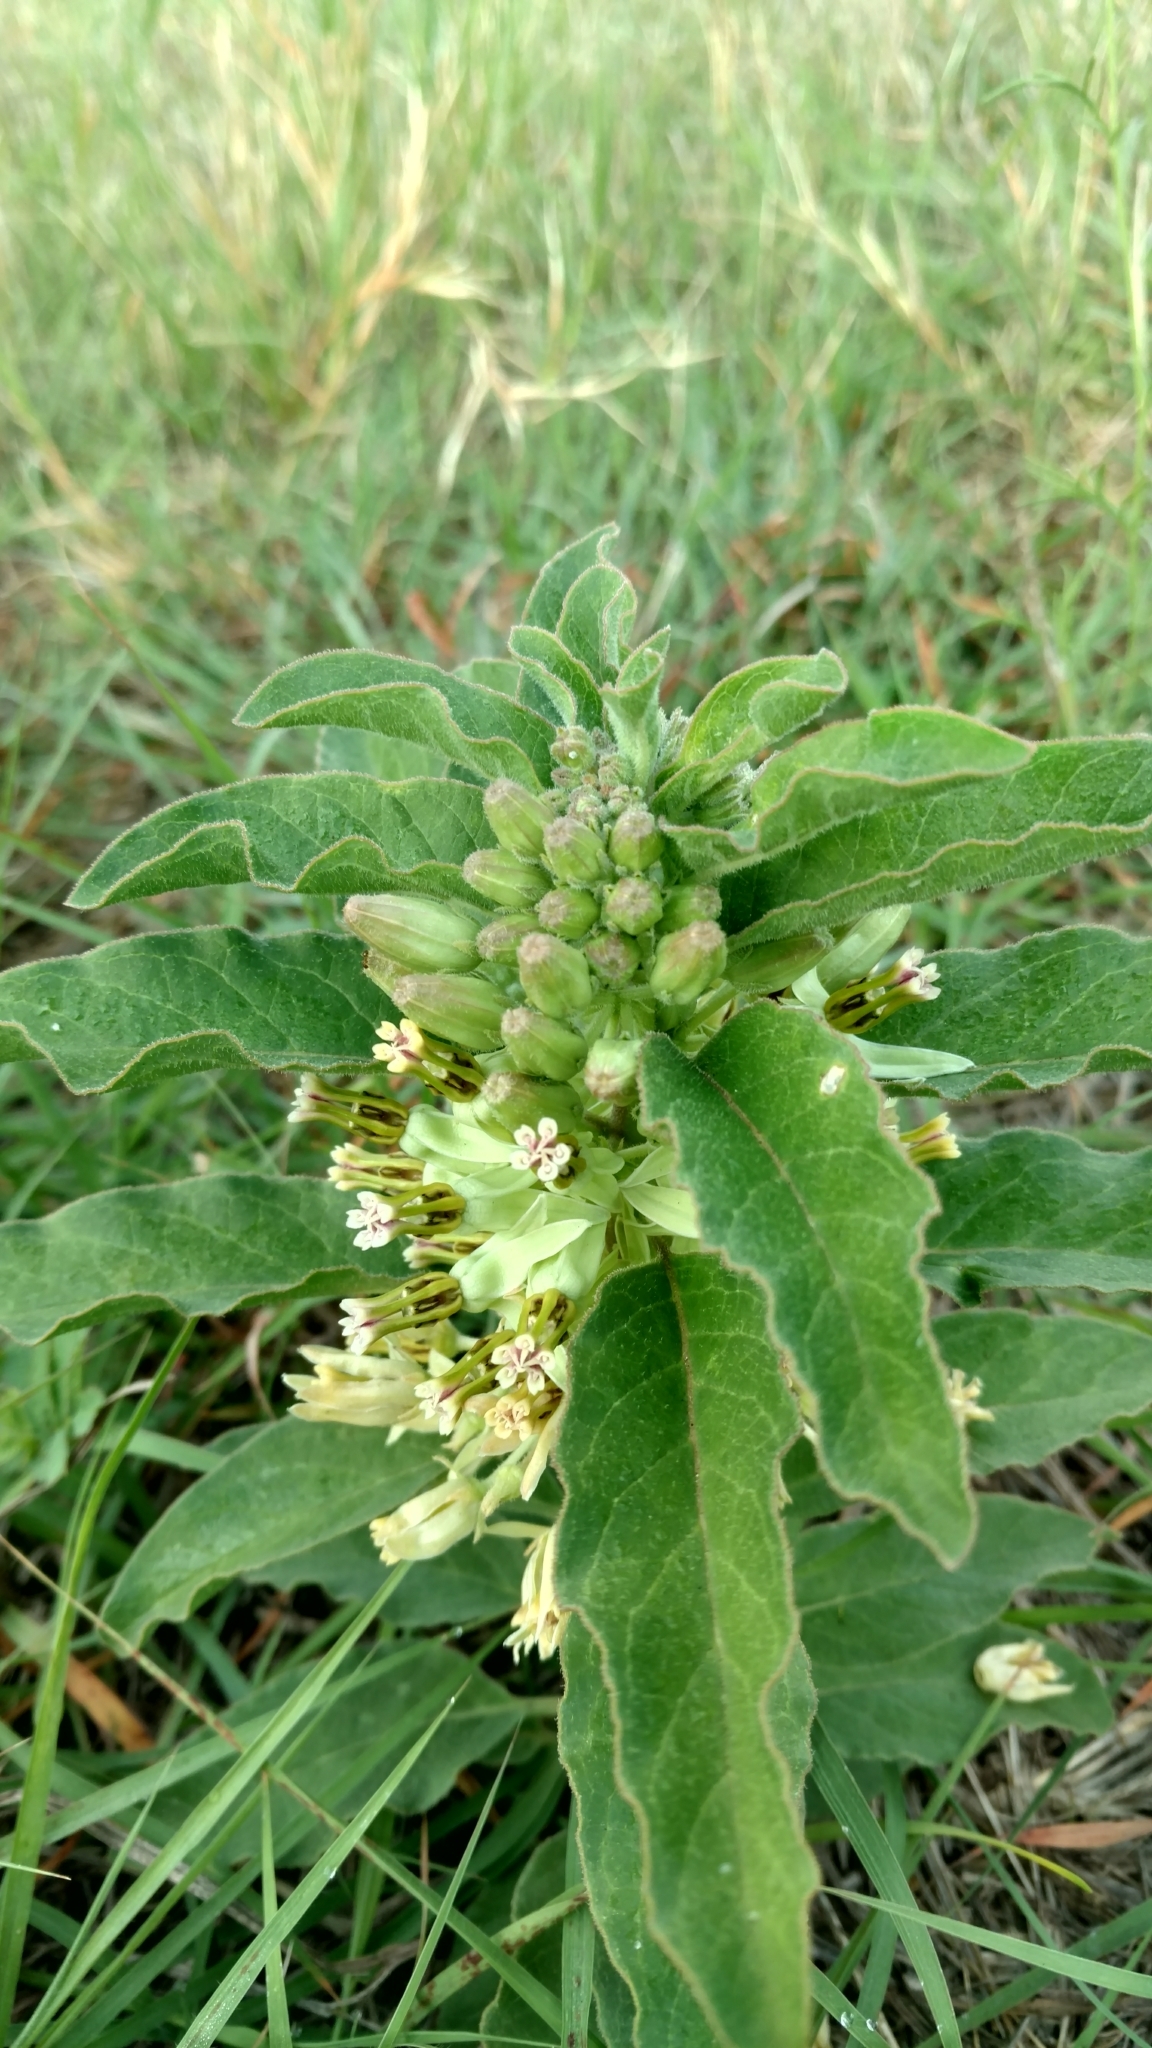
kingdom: Plantae
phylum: Tracheophyta
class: Magnoliopsida
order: Gentianales
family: Apocynaceae
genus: Asclepias
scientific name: Asclepias oenotheroides
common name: Zizotes milkweed
